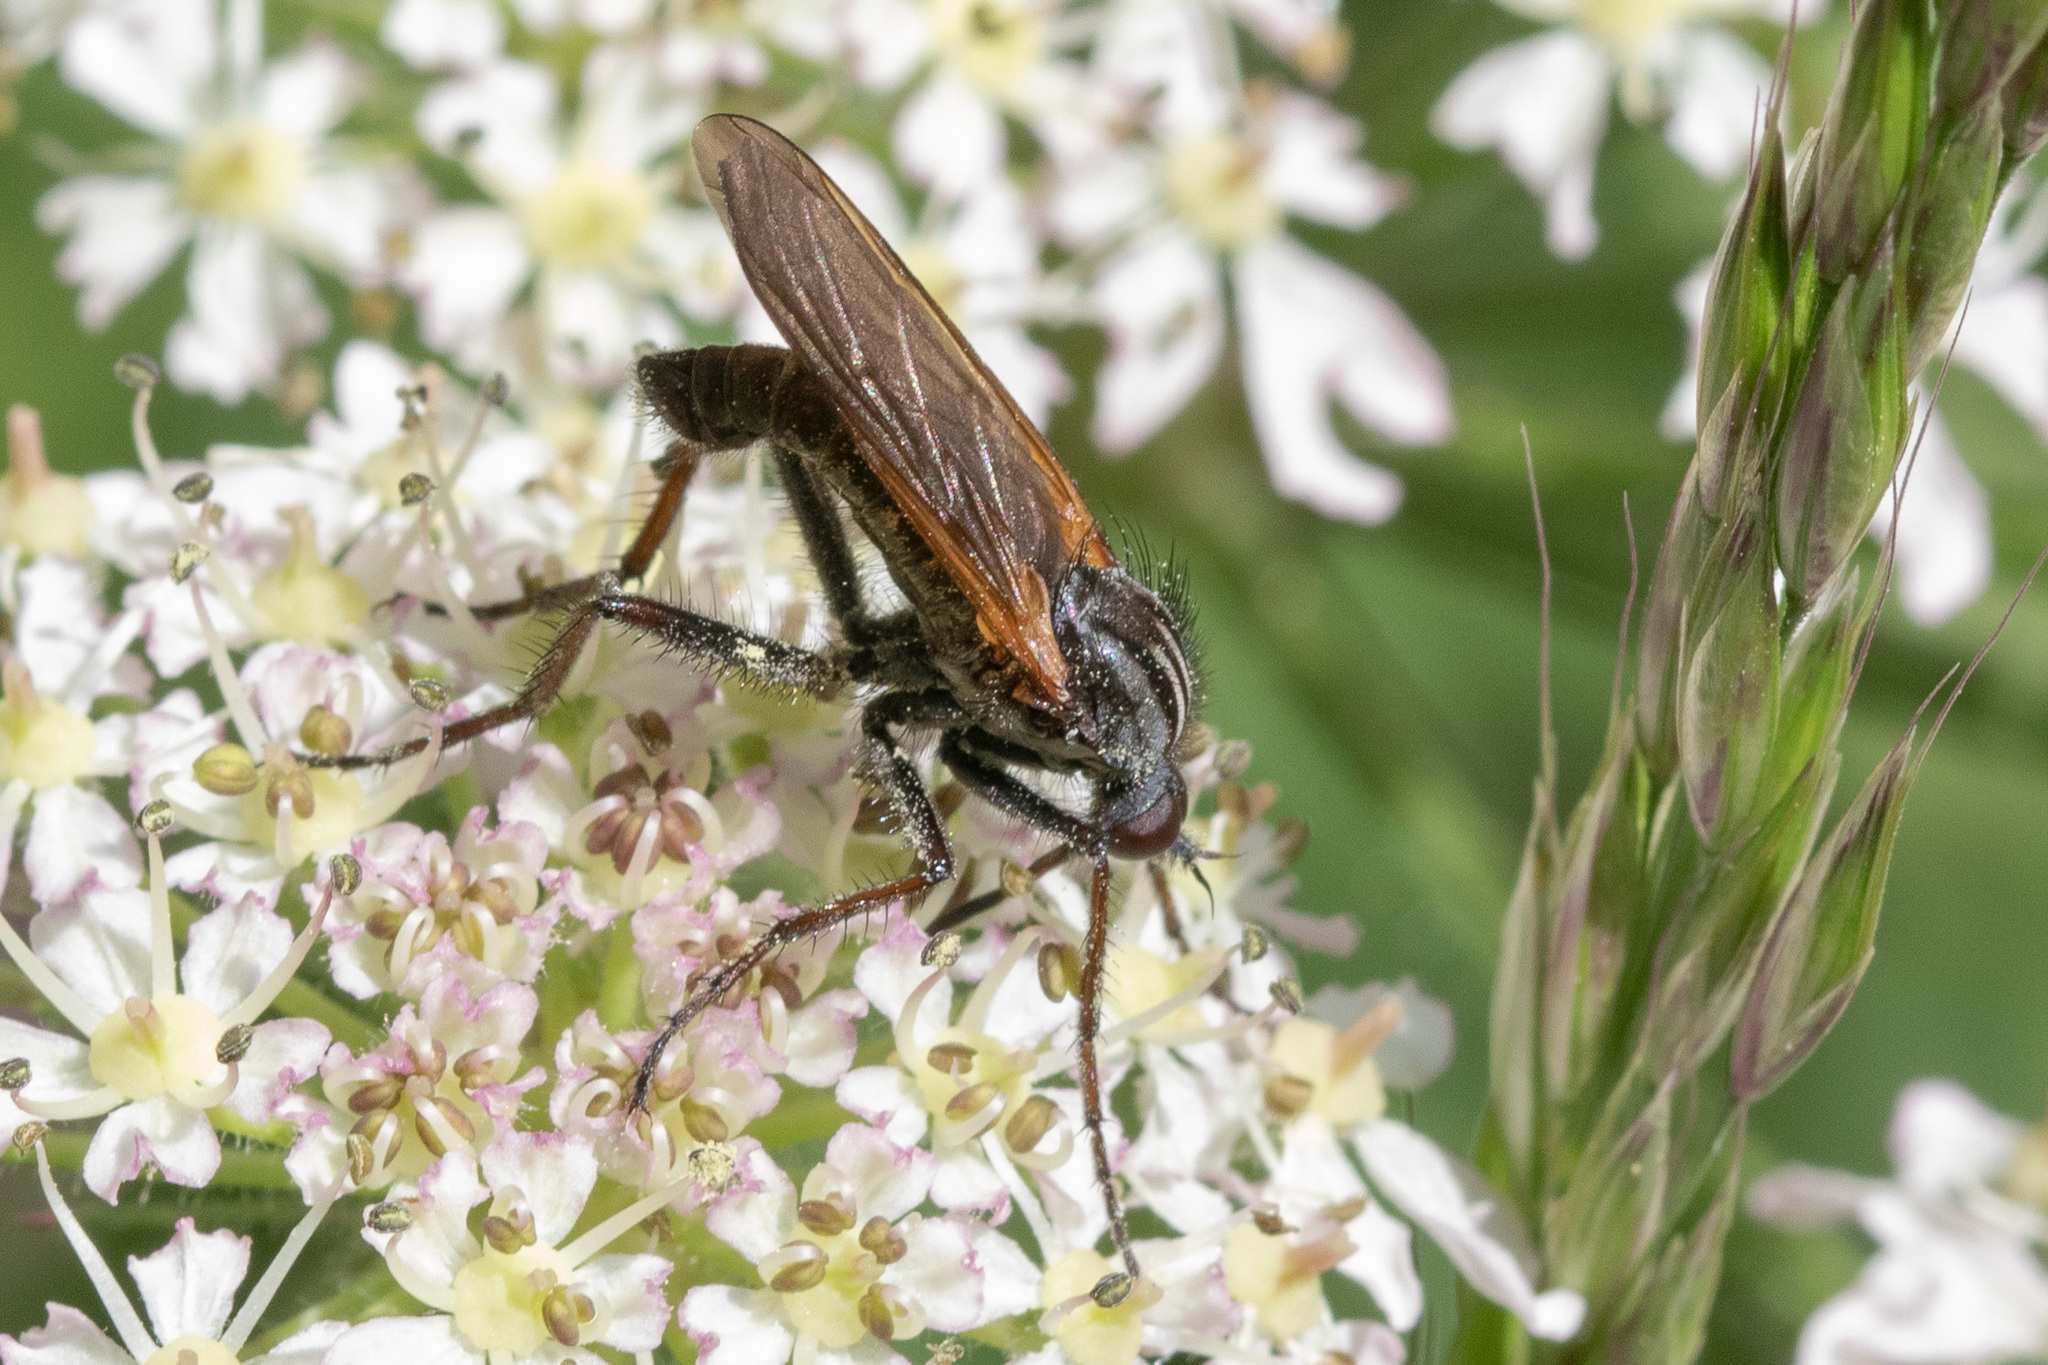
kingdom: Animalia
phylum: Arthropoda
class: Insecta
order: Diptera
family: Empididae
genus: Empis
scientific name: Empis tessellata
